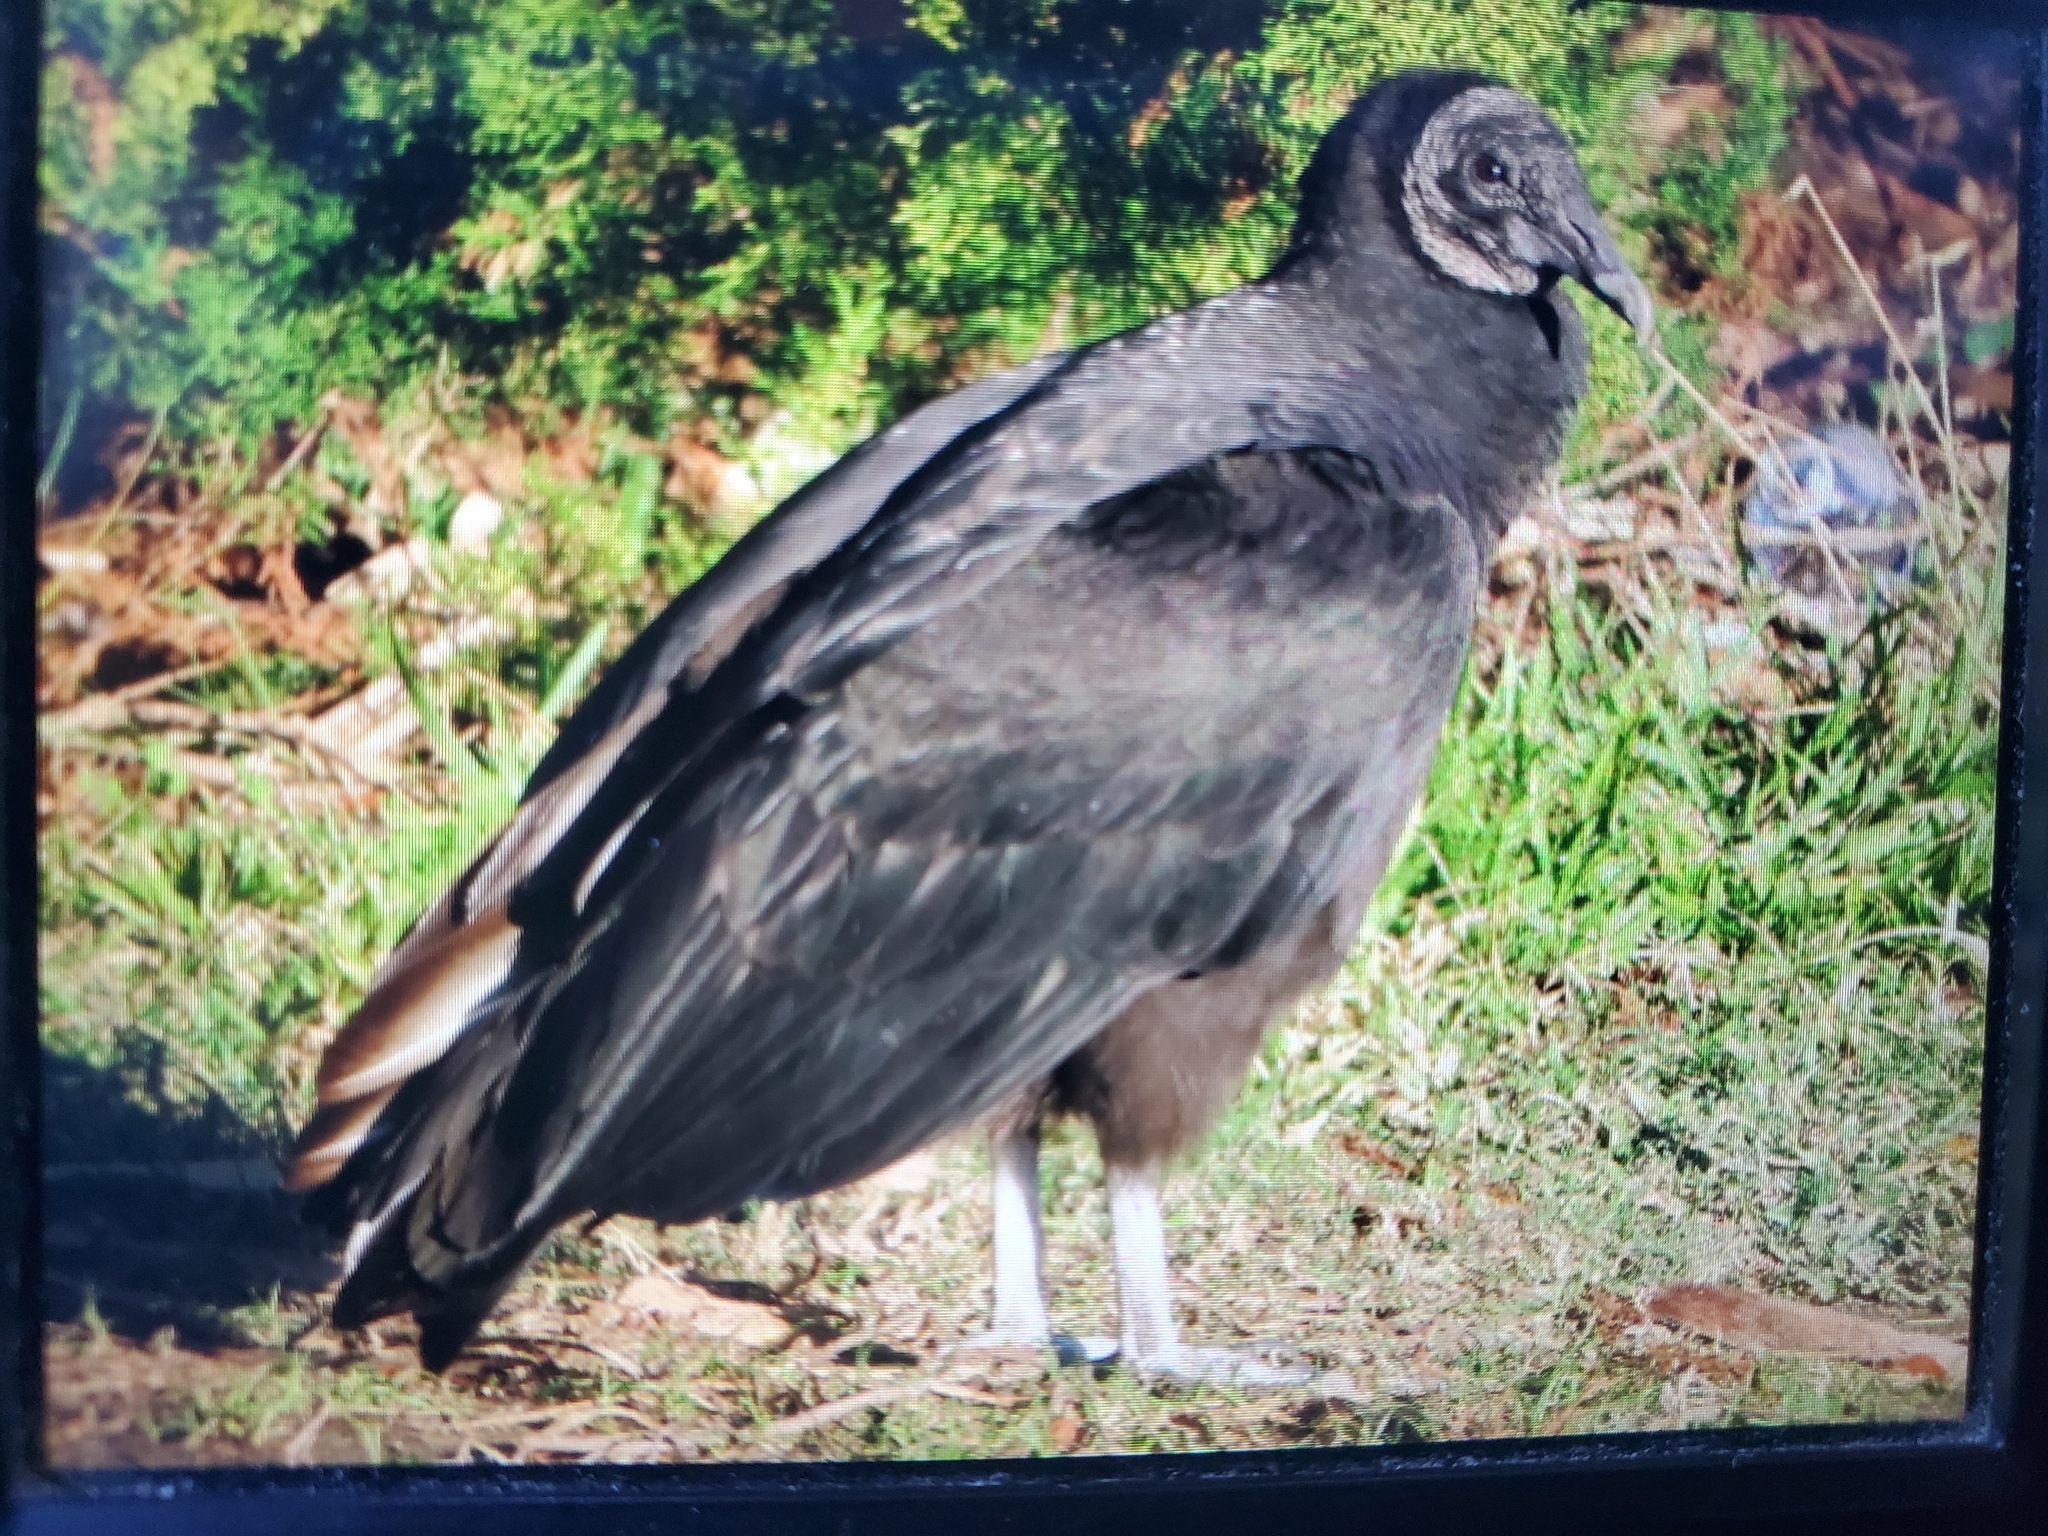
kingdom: Animalia
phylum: Chordata
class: Aves
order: Accipitriformes
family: Cathartidae
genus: Coragyps
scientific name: Coragyps atratus
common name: Black vulture
